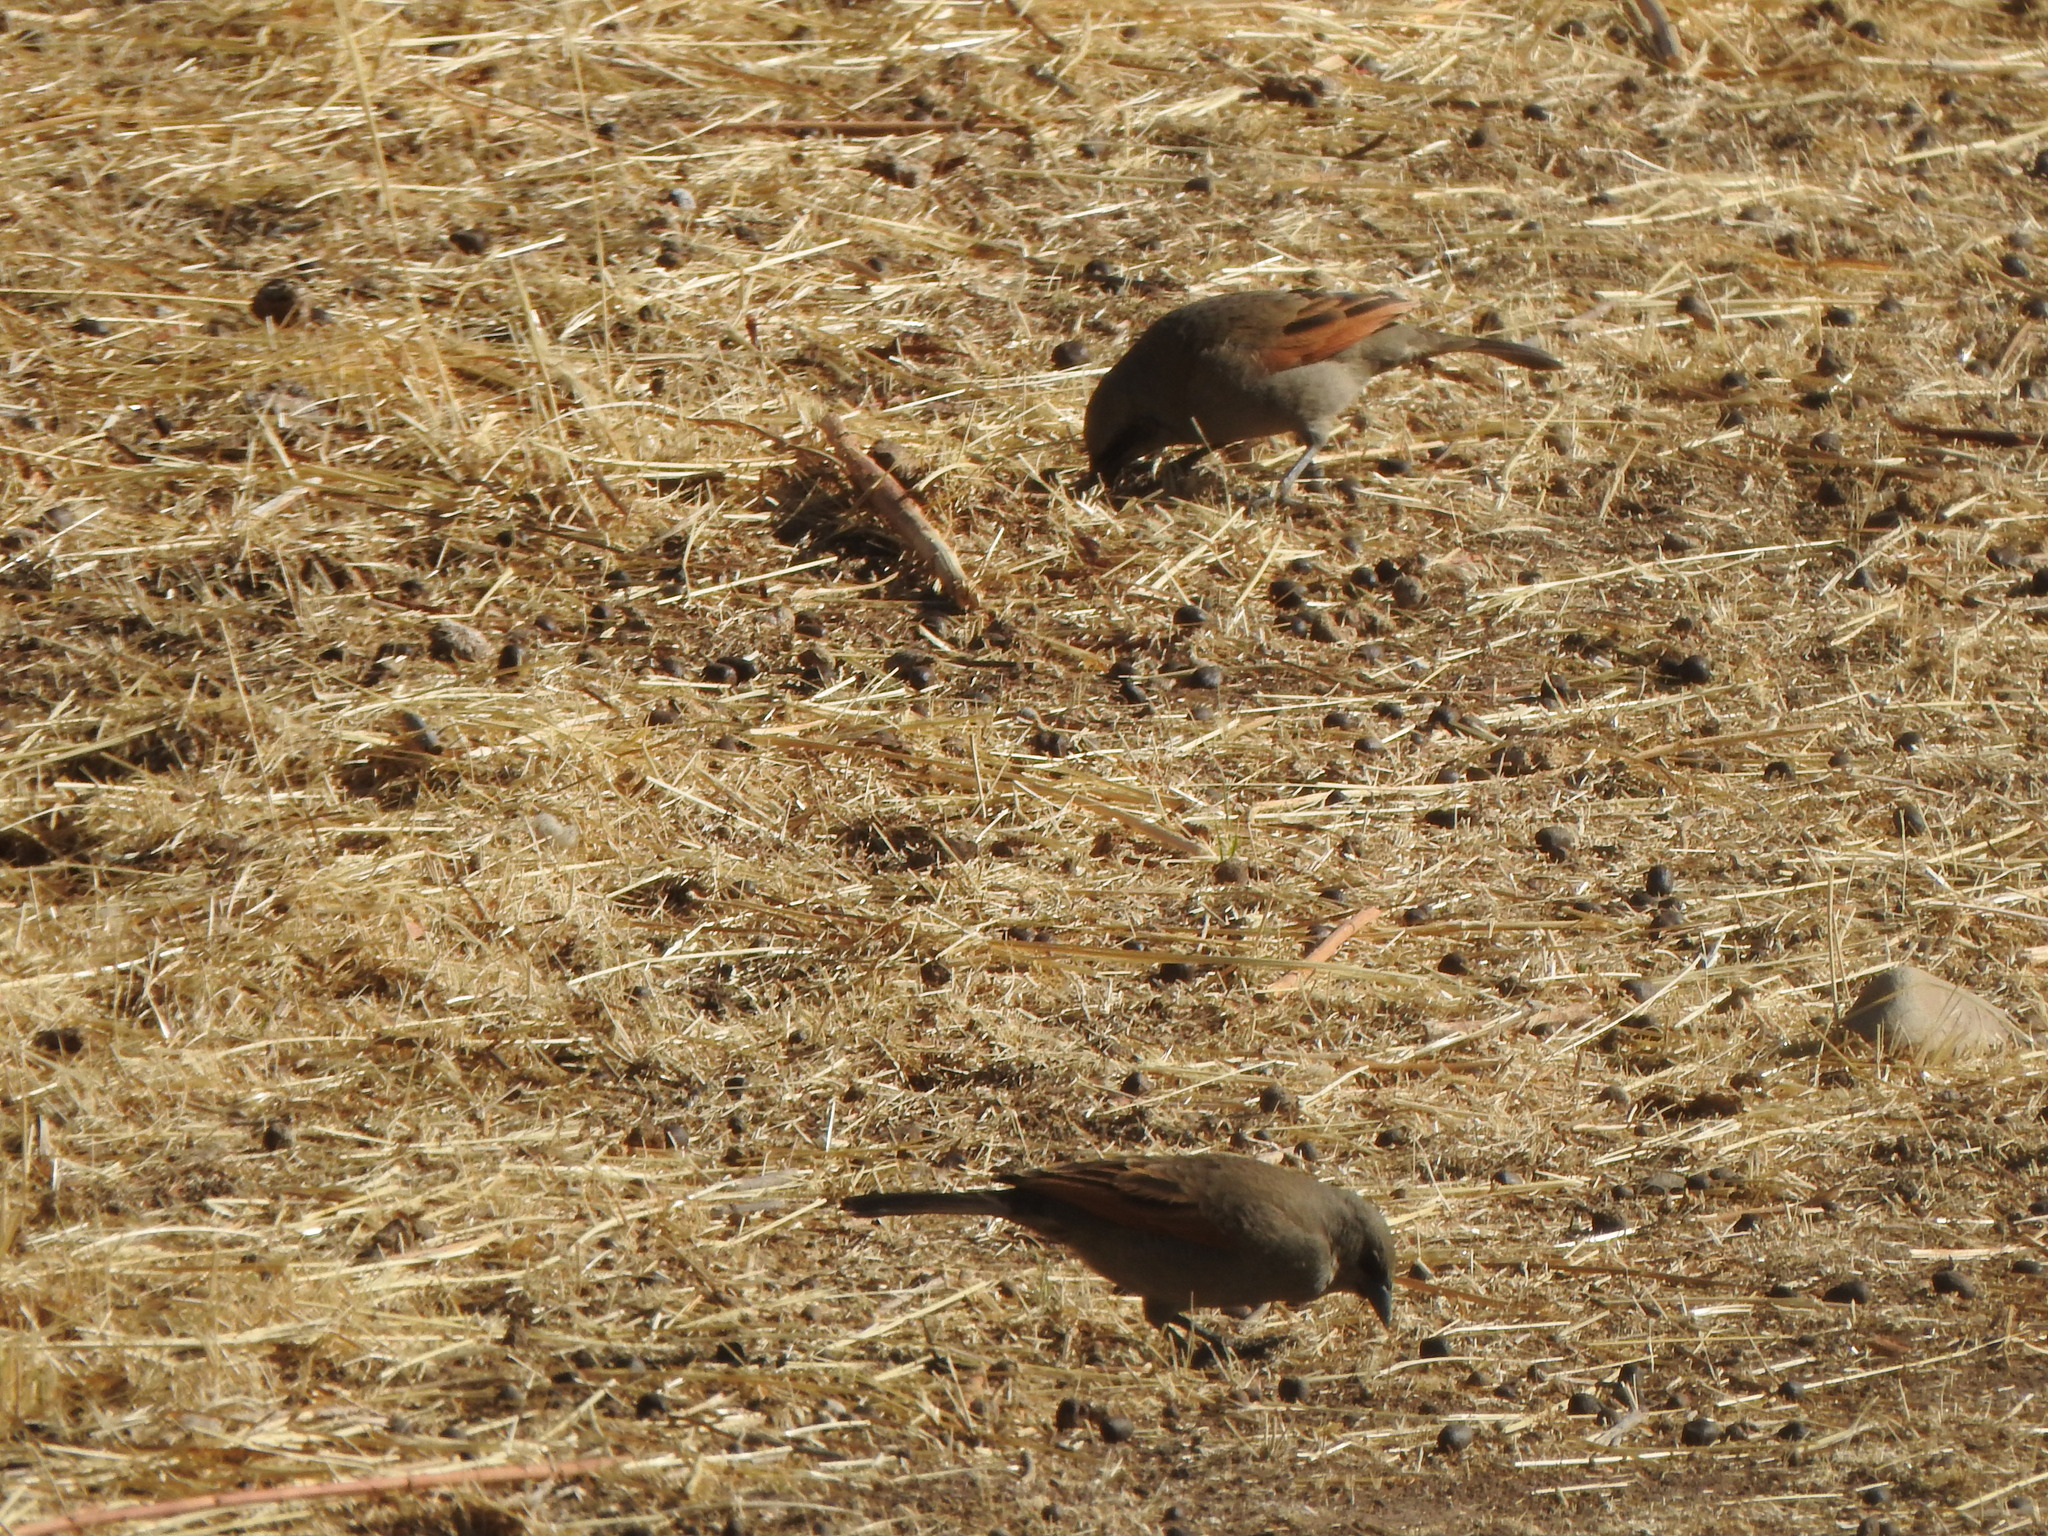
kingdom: Animalia
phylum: Chordata
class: Aves
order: Passeriformes
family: Icteridae
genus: Agelaioides
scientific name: Agelaioides badius
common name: Baywing
